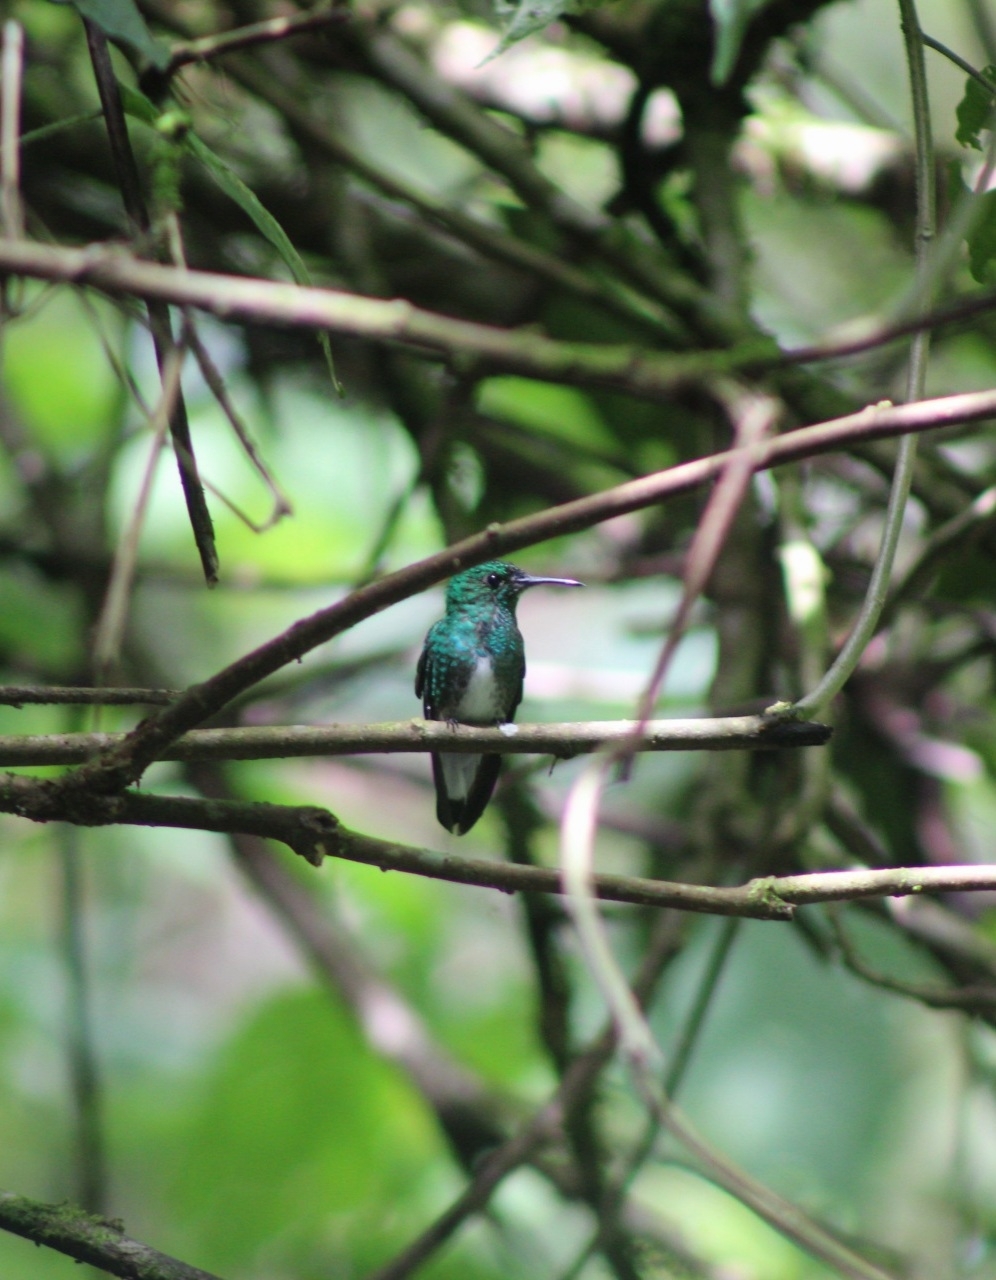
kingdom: Animalia
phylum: Chordata
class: Aves
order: Apodiformes
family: Trochilidae
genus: Microchera
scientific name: Microchera chionura
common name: White-tailed emerald
